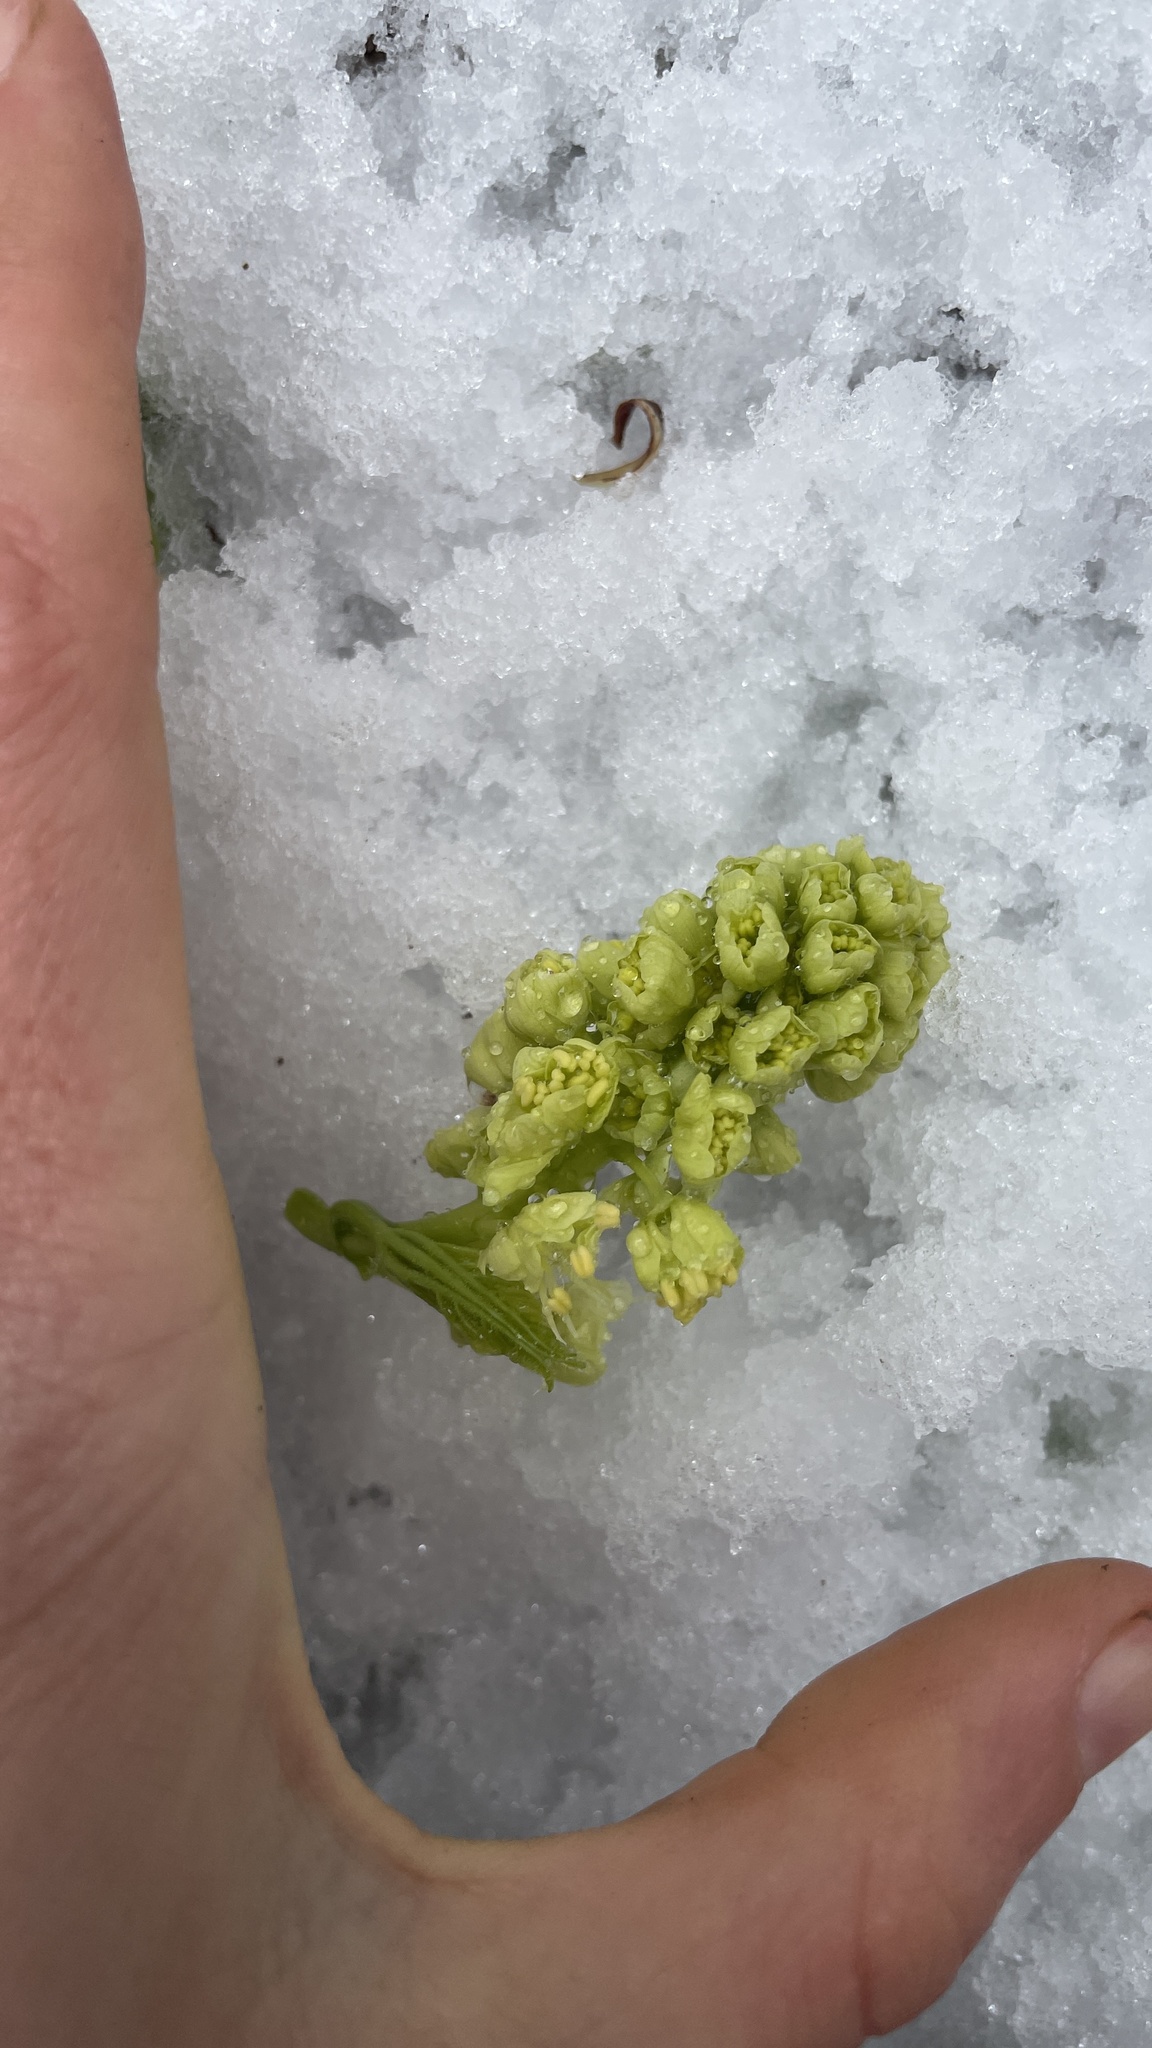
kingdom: Plantae
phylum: Tracheophyta
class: Magnoliopsida
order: Sapindales
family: Sapindaceae
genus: Acer
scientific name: Acer macrophyllum
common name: Oregon maple
